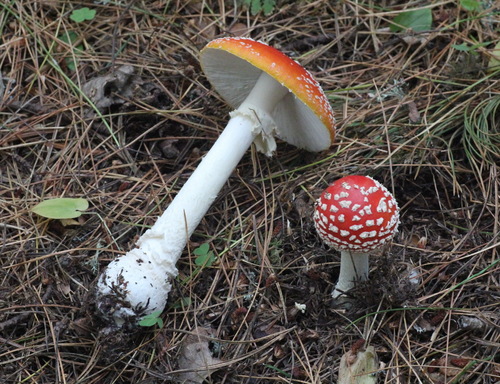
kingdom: Fungi
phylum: Basidiomycota
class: Agaricomycetes
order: Agaricales
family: Amanitaceae
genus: Amanita
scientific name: Amanita muscaria
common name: Fly agaric
